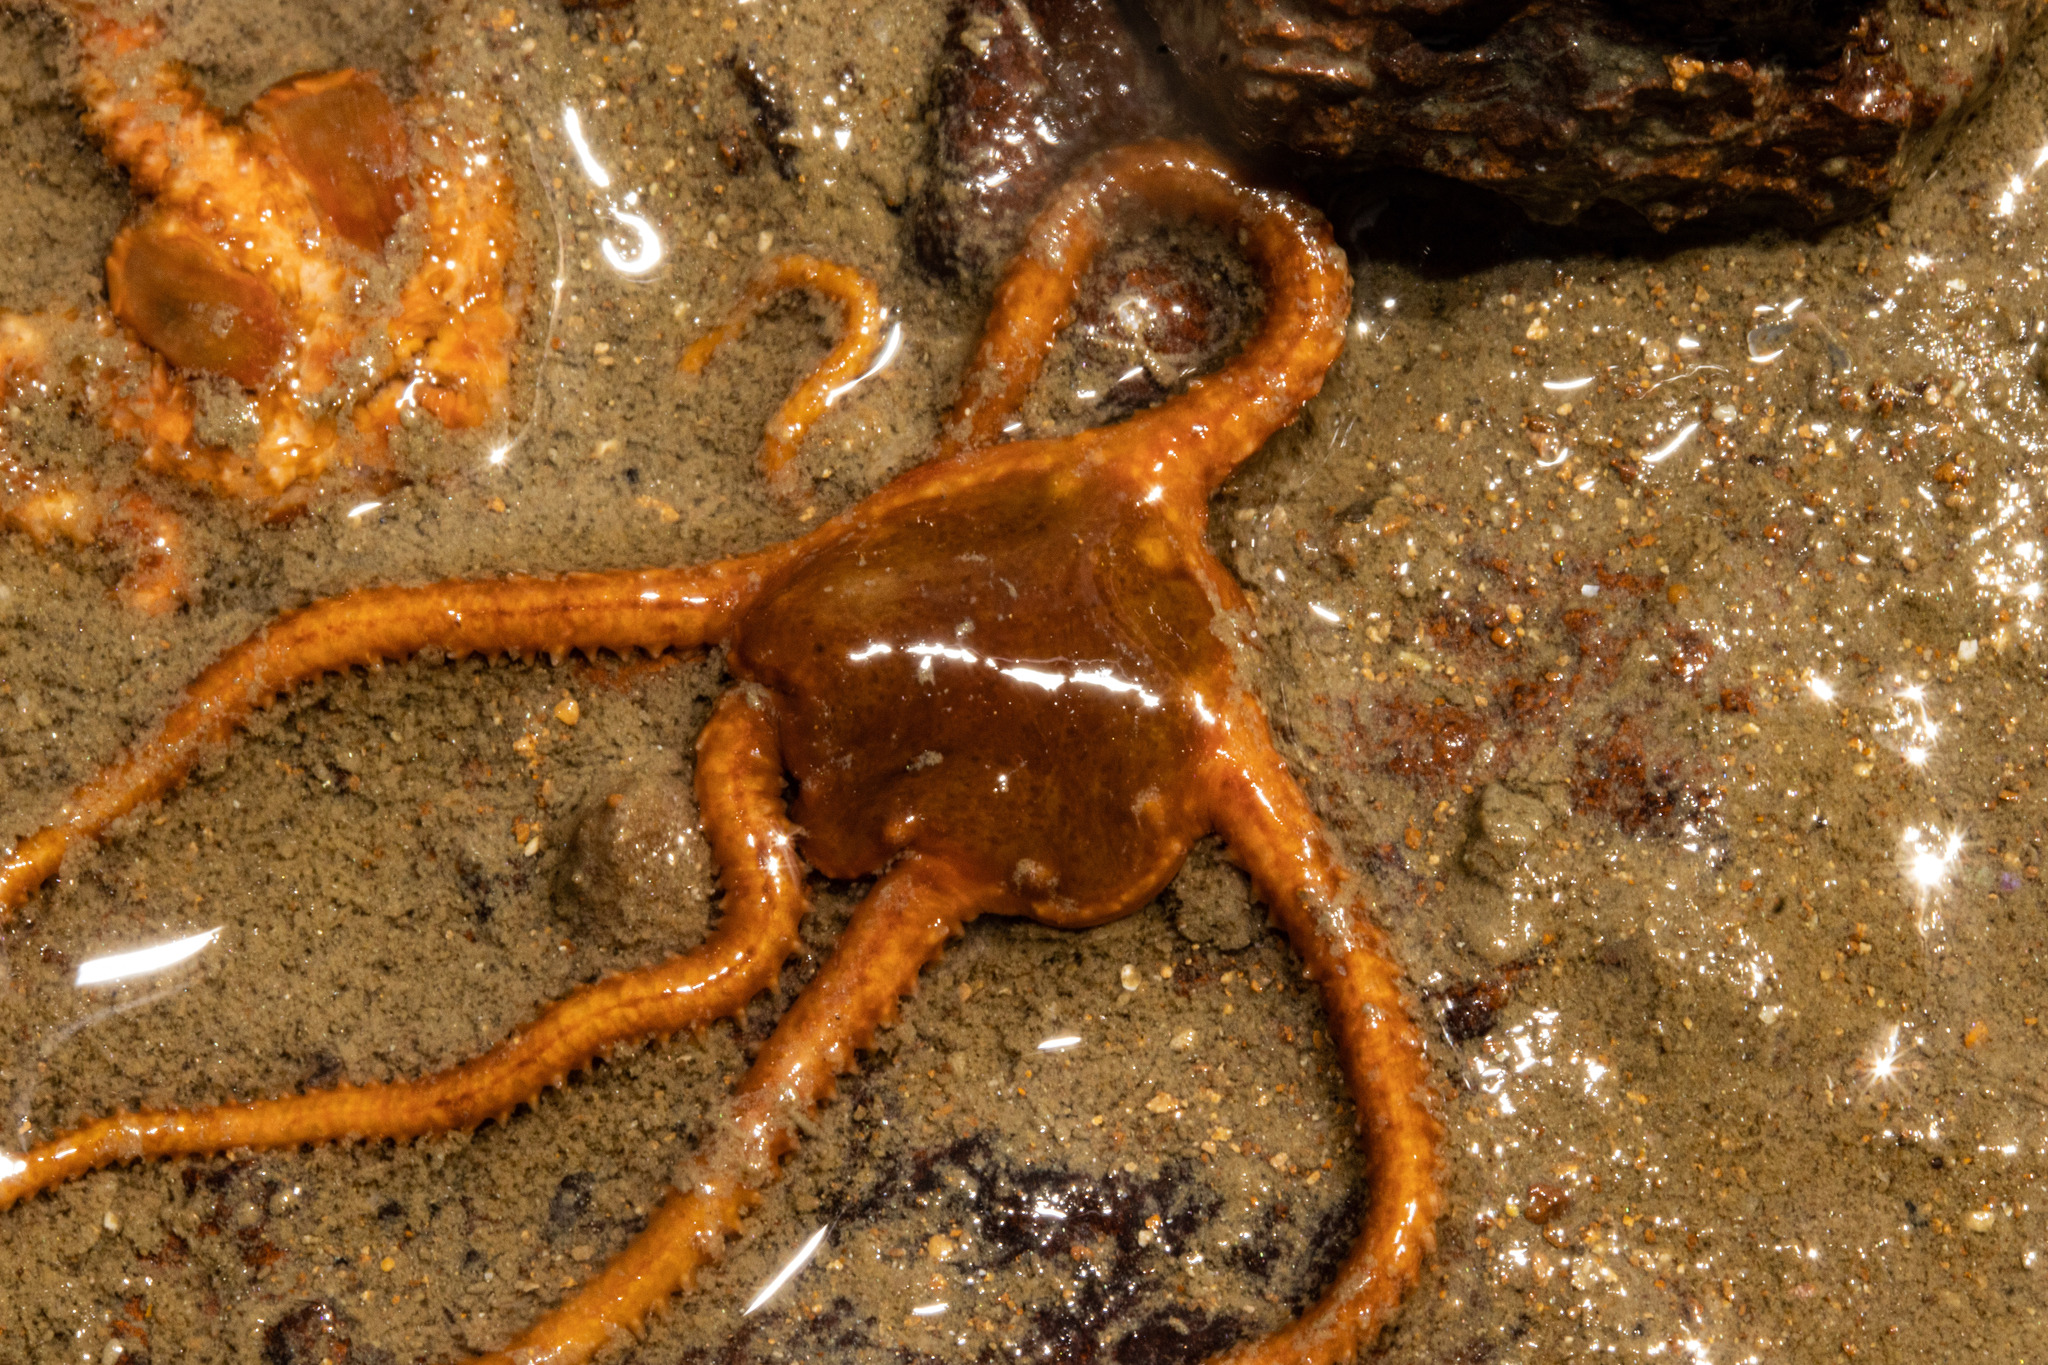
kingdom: Animalia
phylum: Echinodermata
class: Ophiuroidea
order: Ophiacanthida
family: Ophiomyxidae
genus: Ophiomyxa
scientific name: Ophiomyxa brevirima
